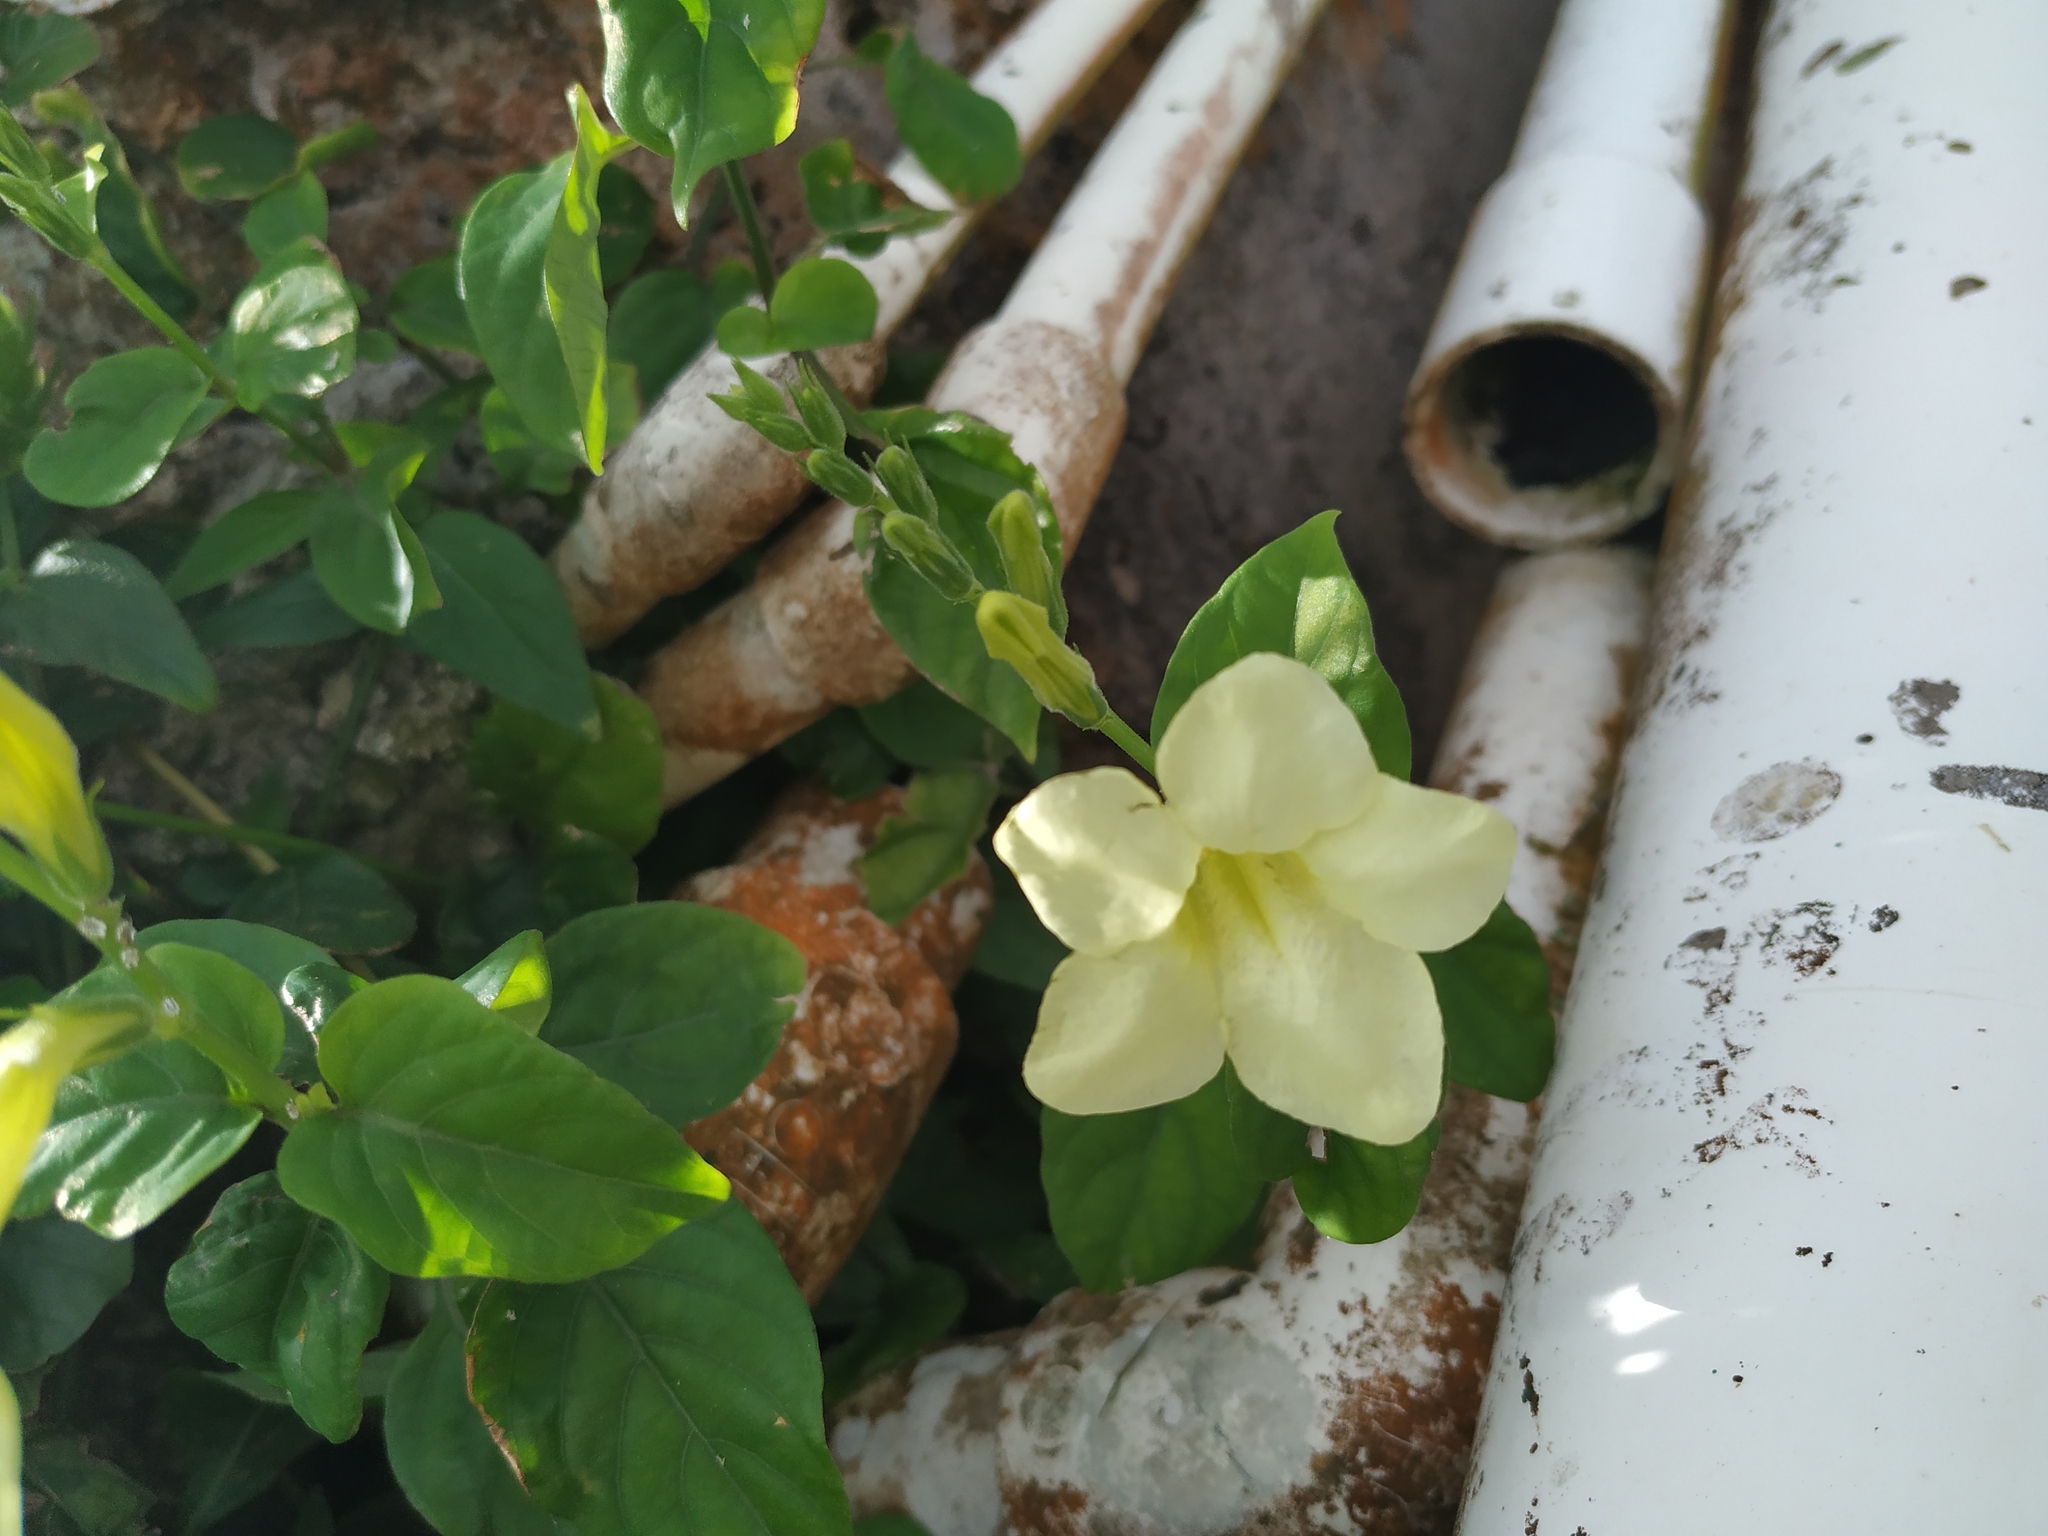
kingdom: Plantae
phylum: Tracheophyta
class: Magnoliopsida
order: Lamiales
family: Acanthaceae
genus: Asystasia
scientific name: Asystasia gangetica
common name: Chinese violet
